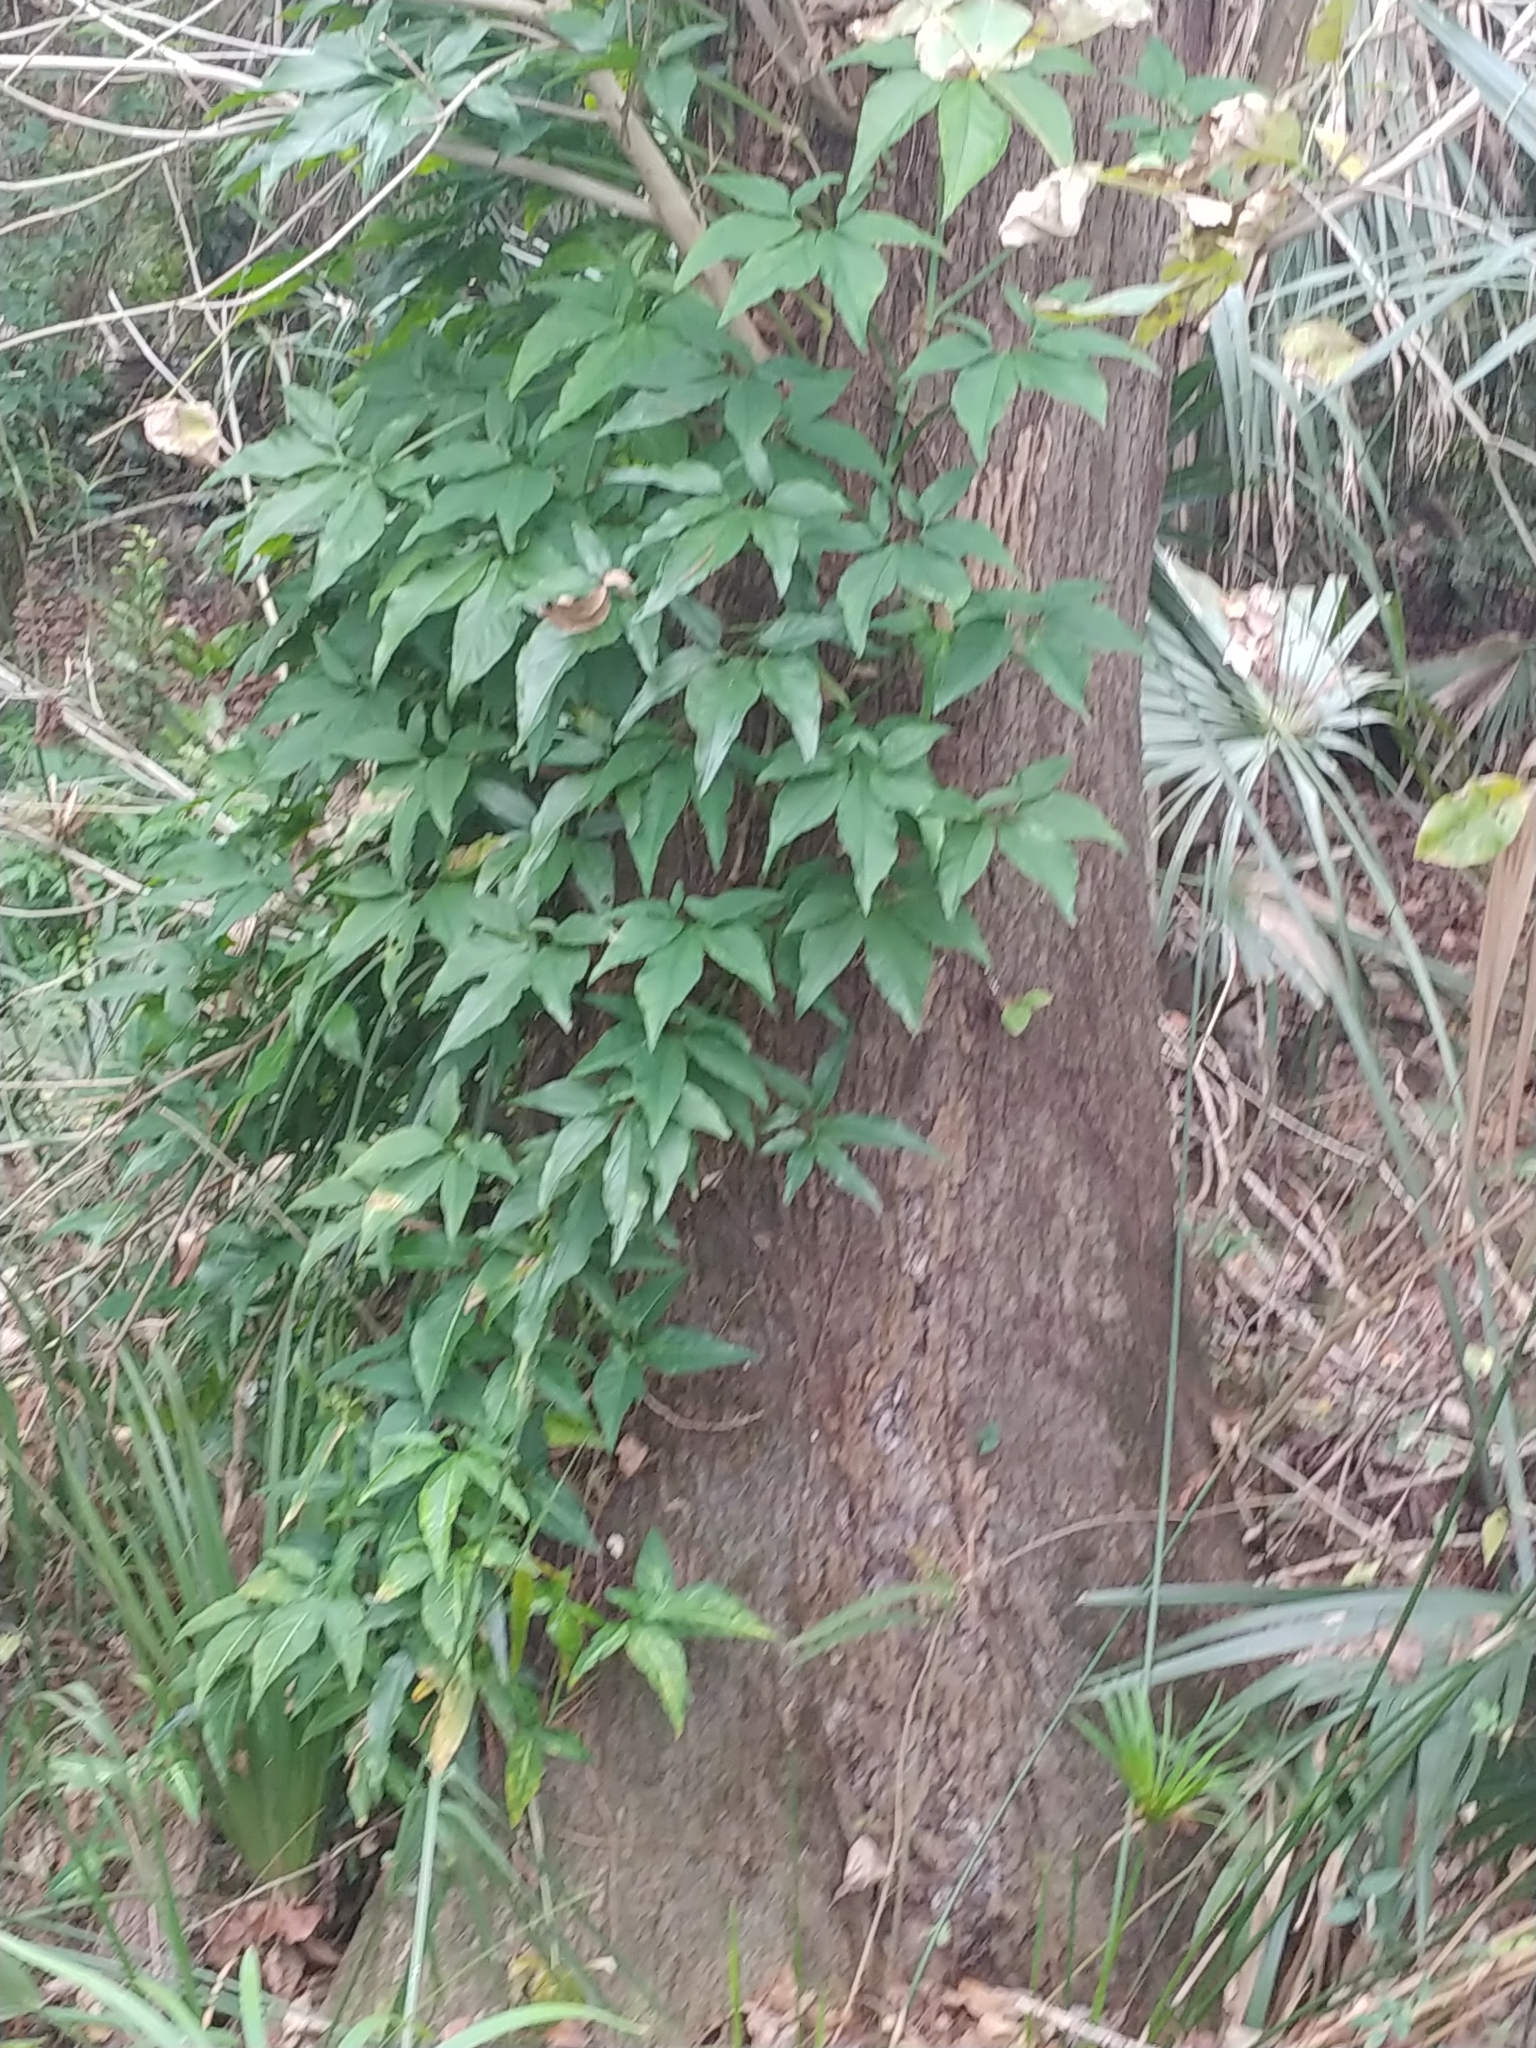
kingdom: Plantae
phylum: Tracheophyta
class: Liliopsida
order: Alismatales
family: Araceae
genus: Syngonium
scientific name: Syngonium podophyllum
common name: American evergreen
